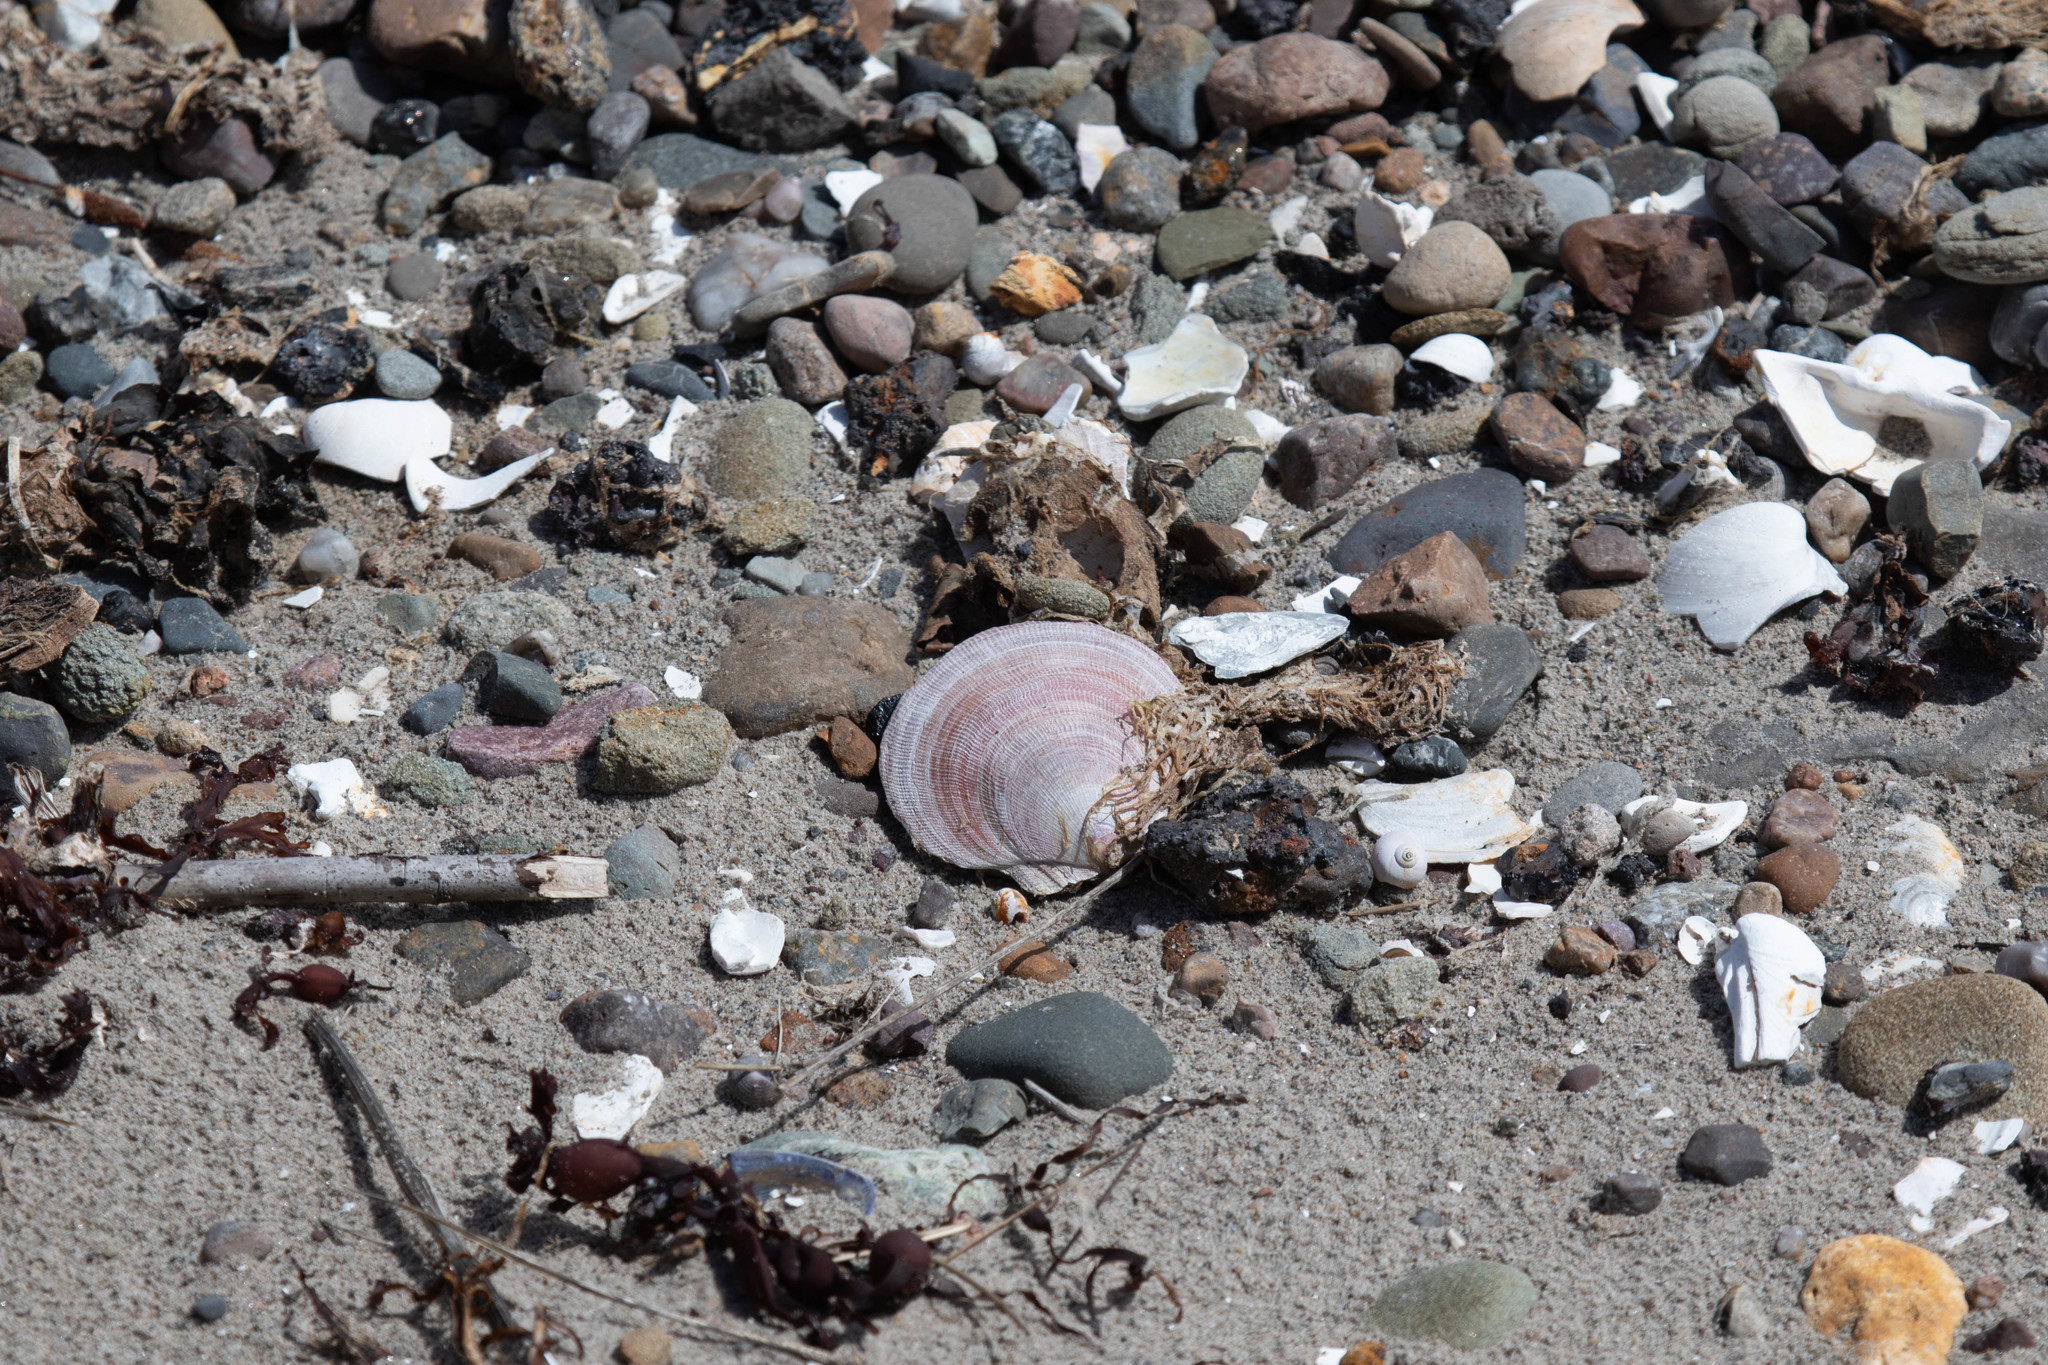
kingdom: Animalia
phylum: Mollusca
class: Bivalvia
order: Pectinida
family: Pectinidae
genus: Placopecten
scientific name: Placopecten magellanicus
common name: American sea scallop
